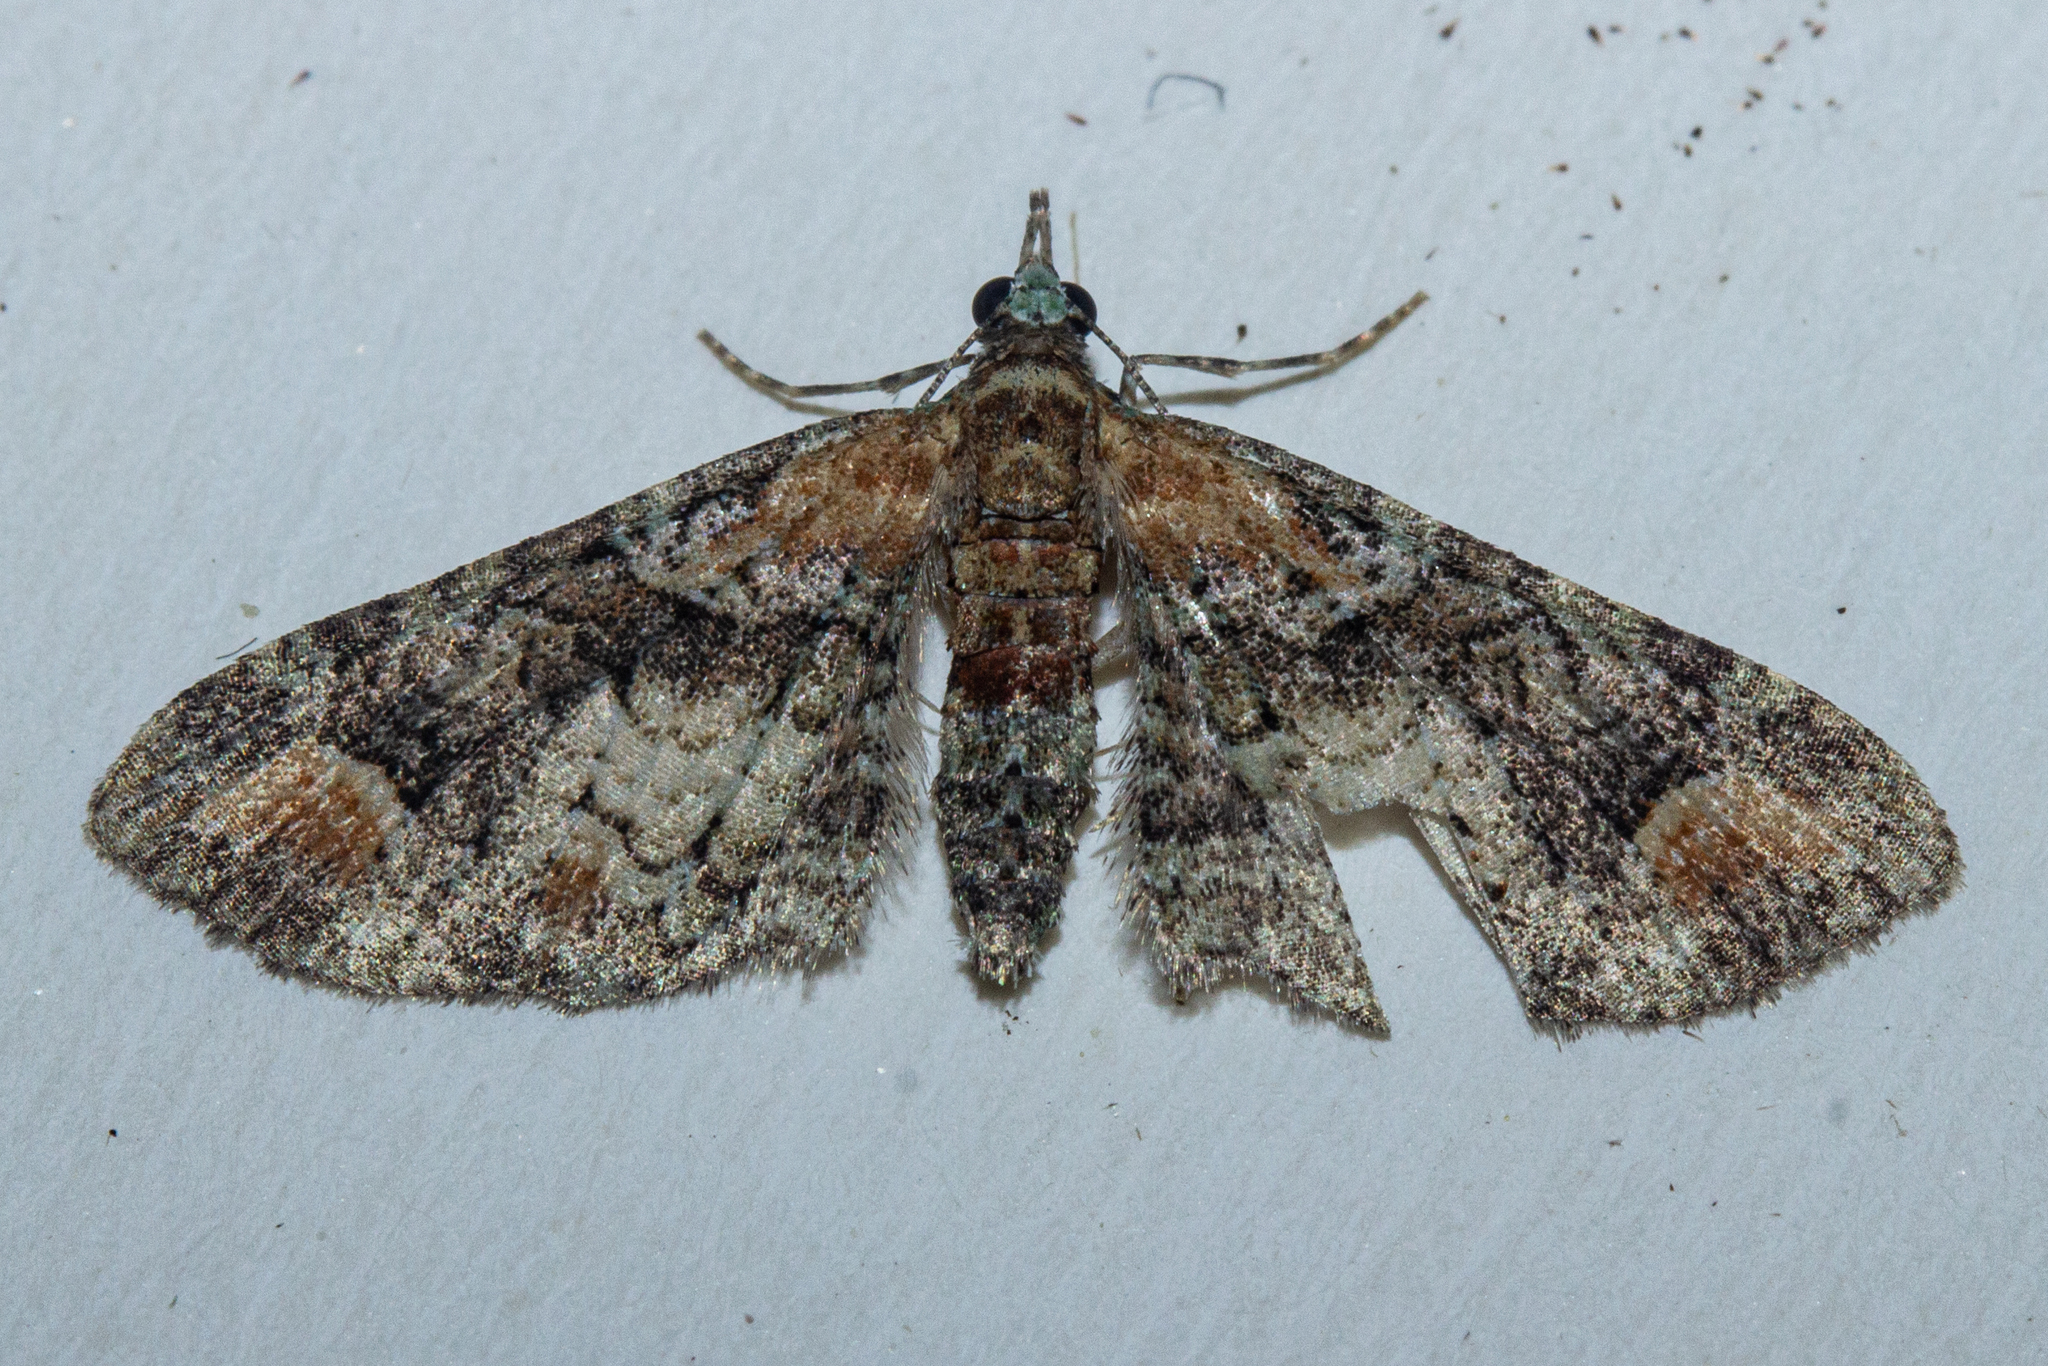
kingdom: Animalia
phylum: Arthropoda
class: Insecta
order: Lepidoptera
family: Geometridae
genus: Idaea
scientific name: Idaea mutanda
